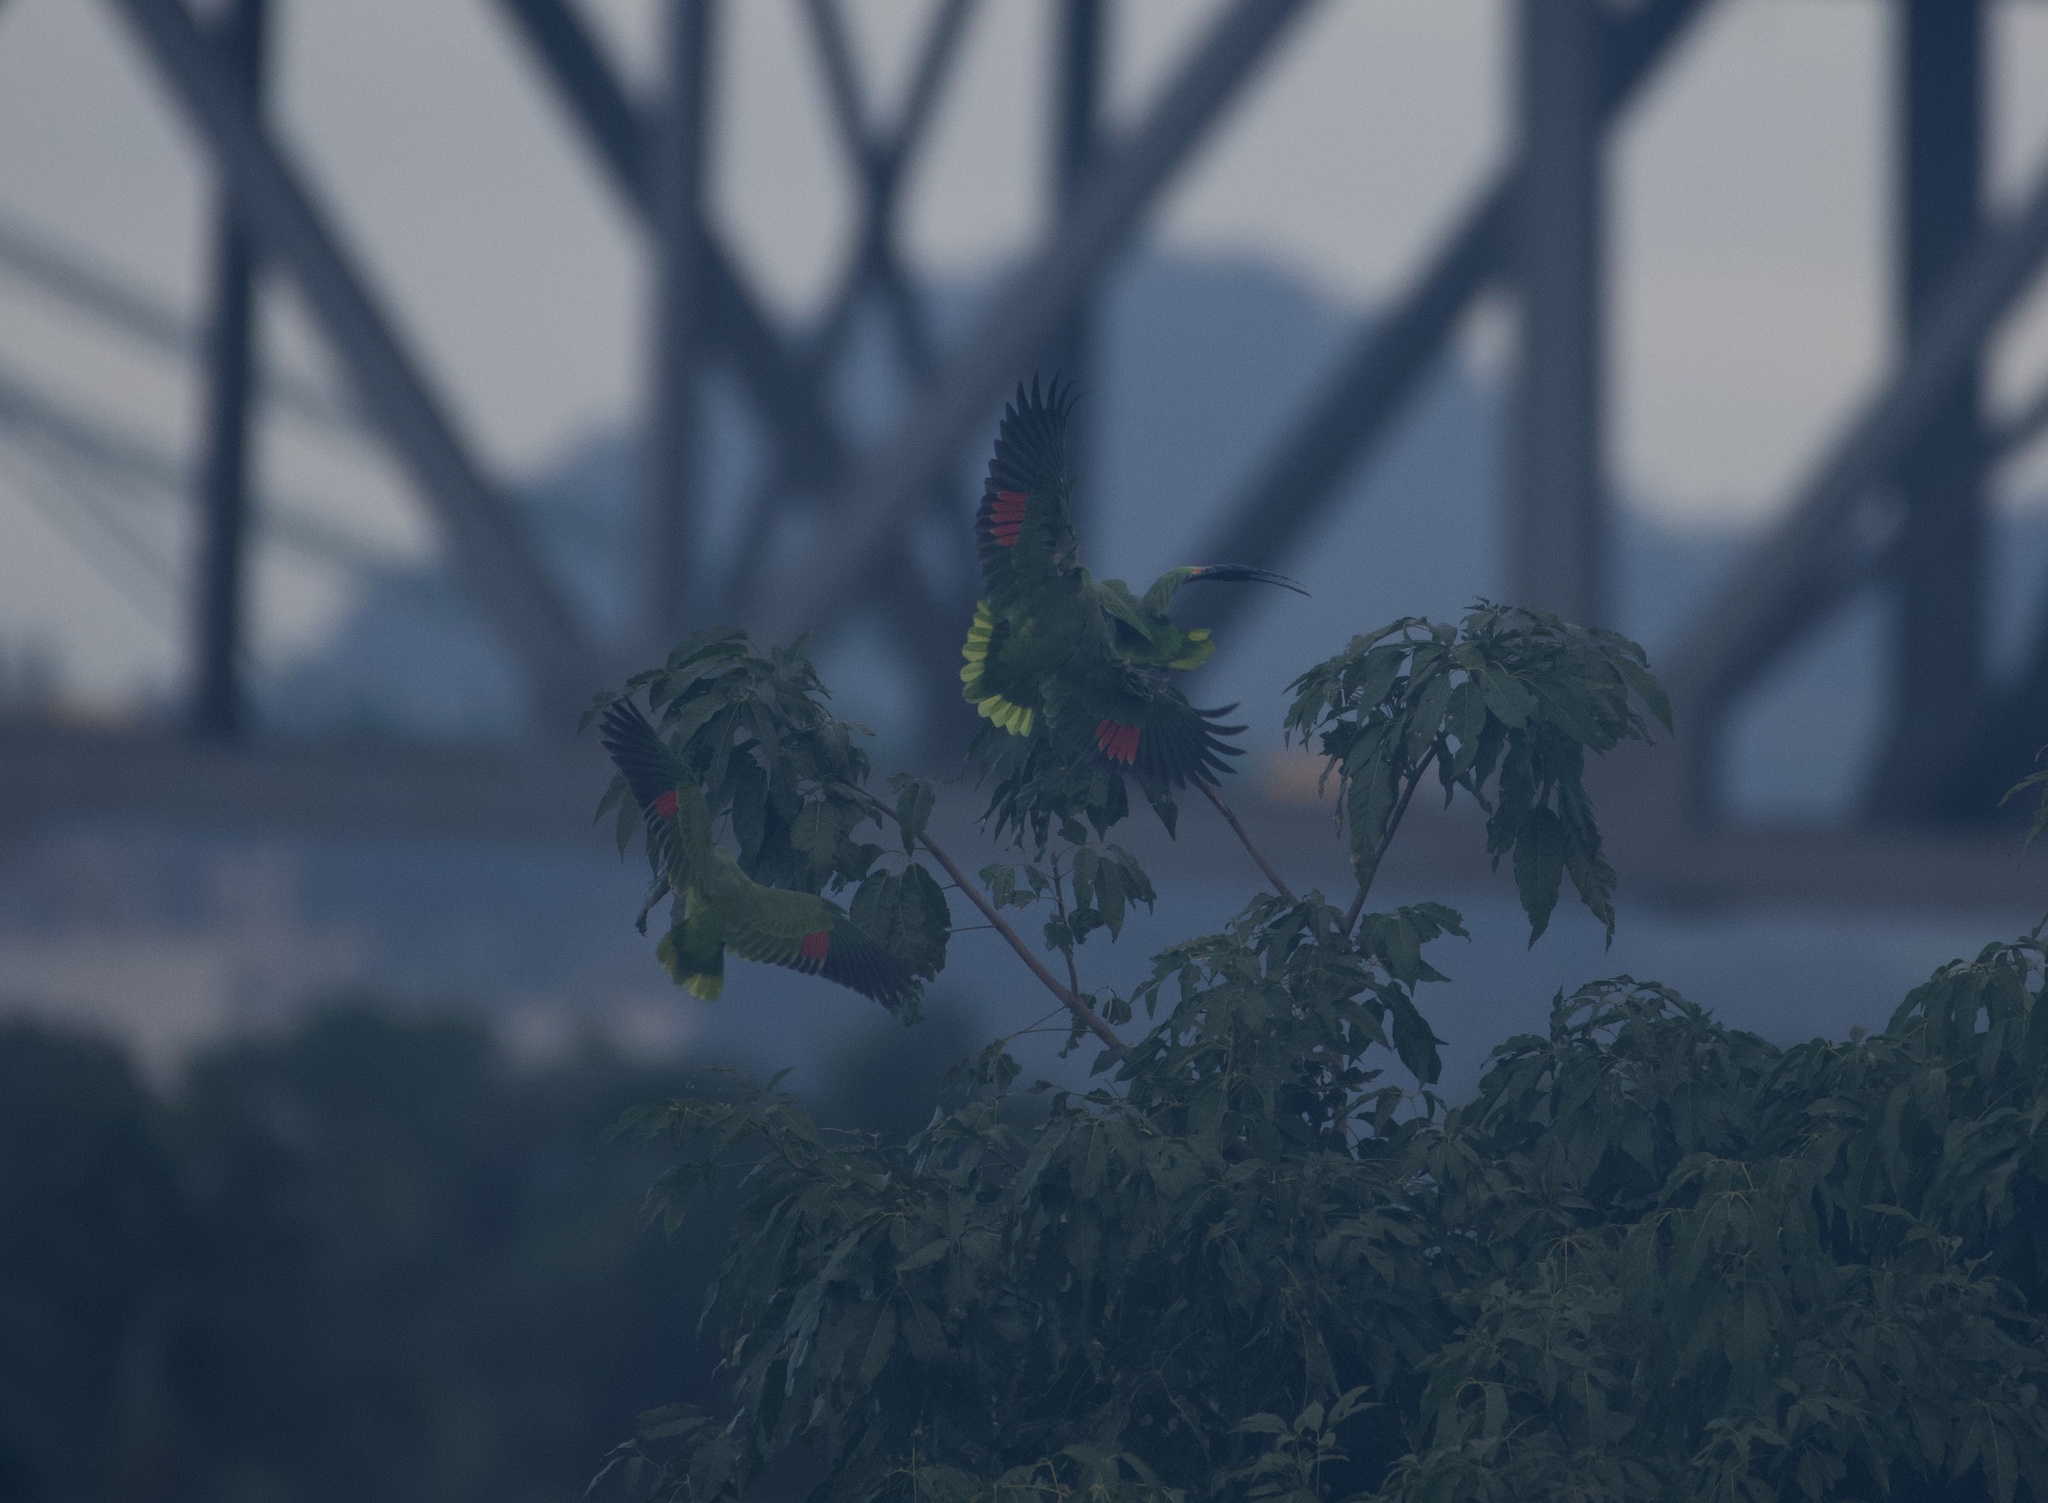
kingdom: Animalia
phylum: Chordata
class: Aves
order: Psittaciformes
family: Psittacidae
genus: Amazona
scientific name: Amazona ochrocephala
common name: Yellow-crowned amazon
